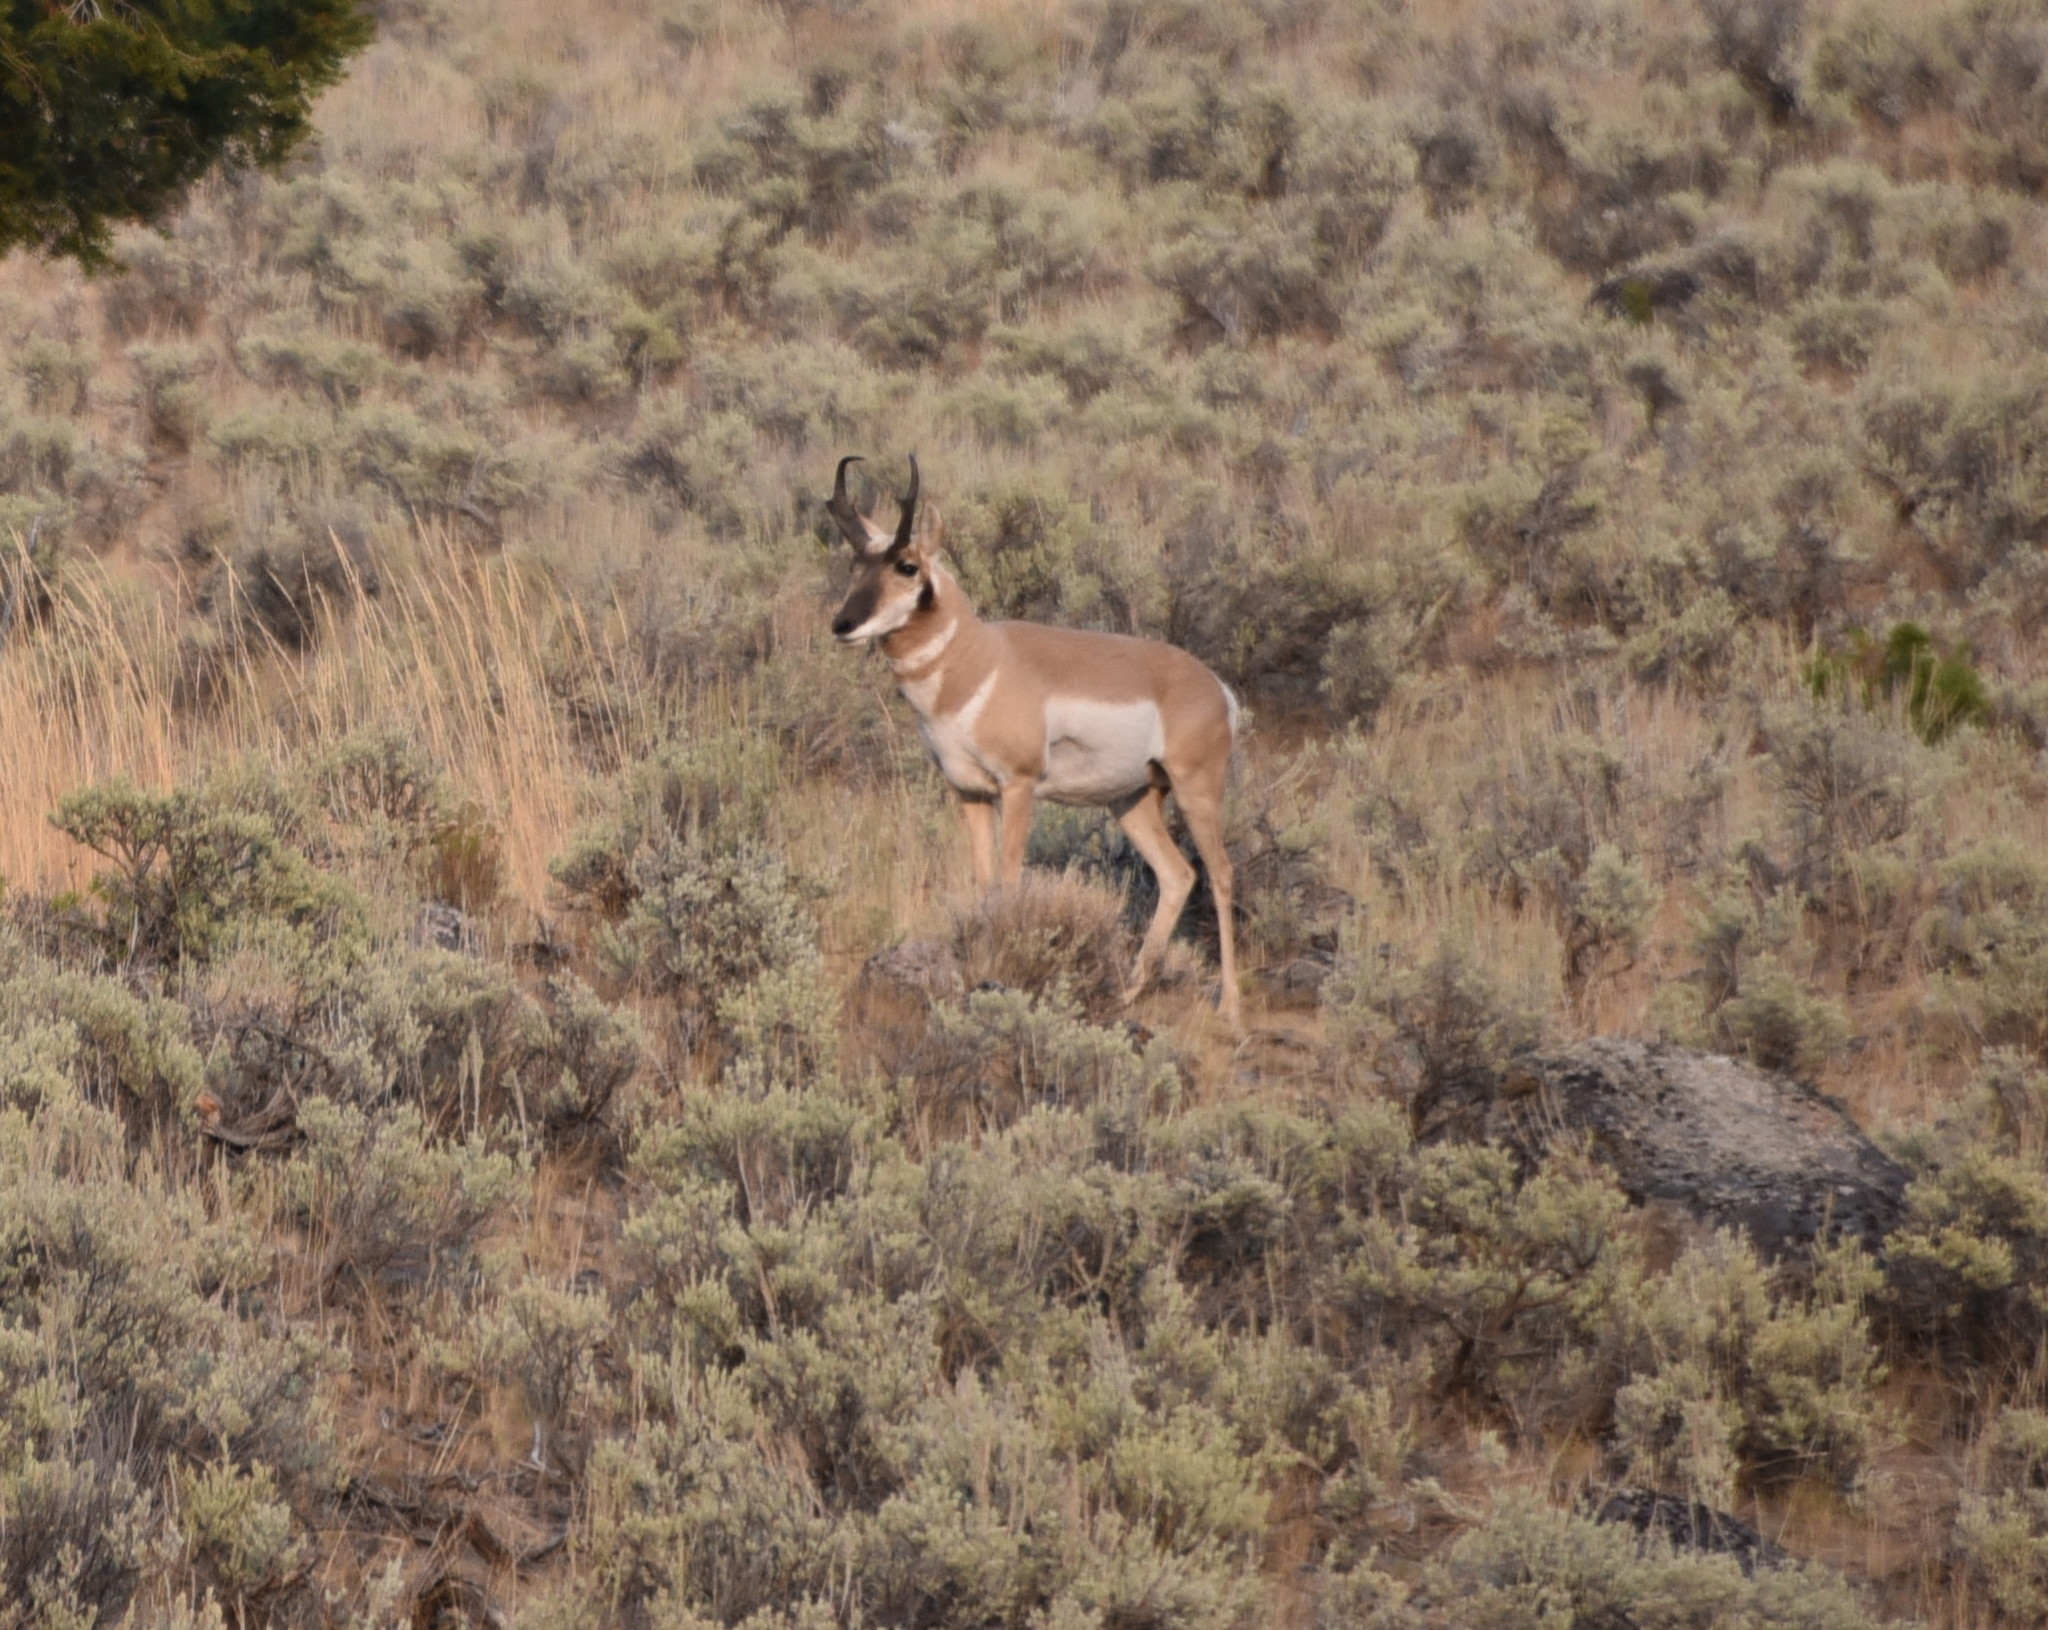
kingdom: Animalia
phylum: Chordata
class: Mammalia
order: Artiodactyla
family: Antilocapridae
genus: Antilocapra
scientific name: Antilocapra americana
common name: Pronghorn
